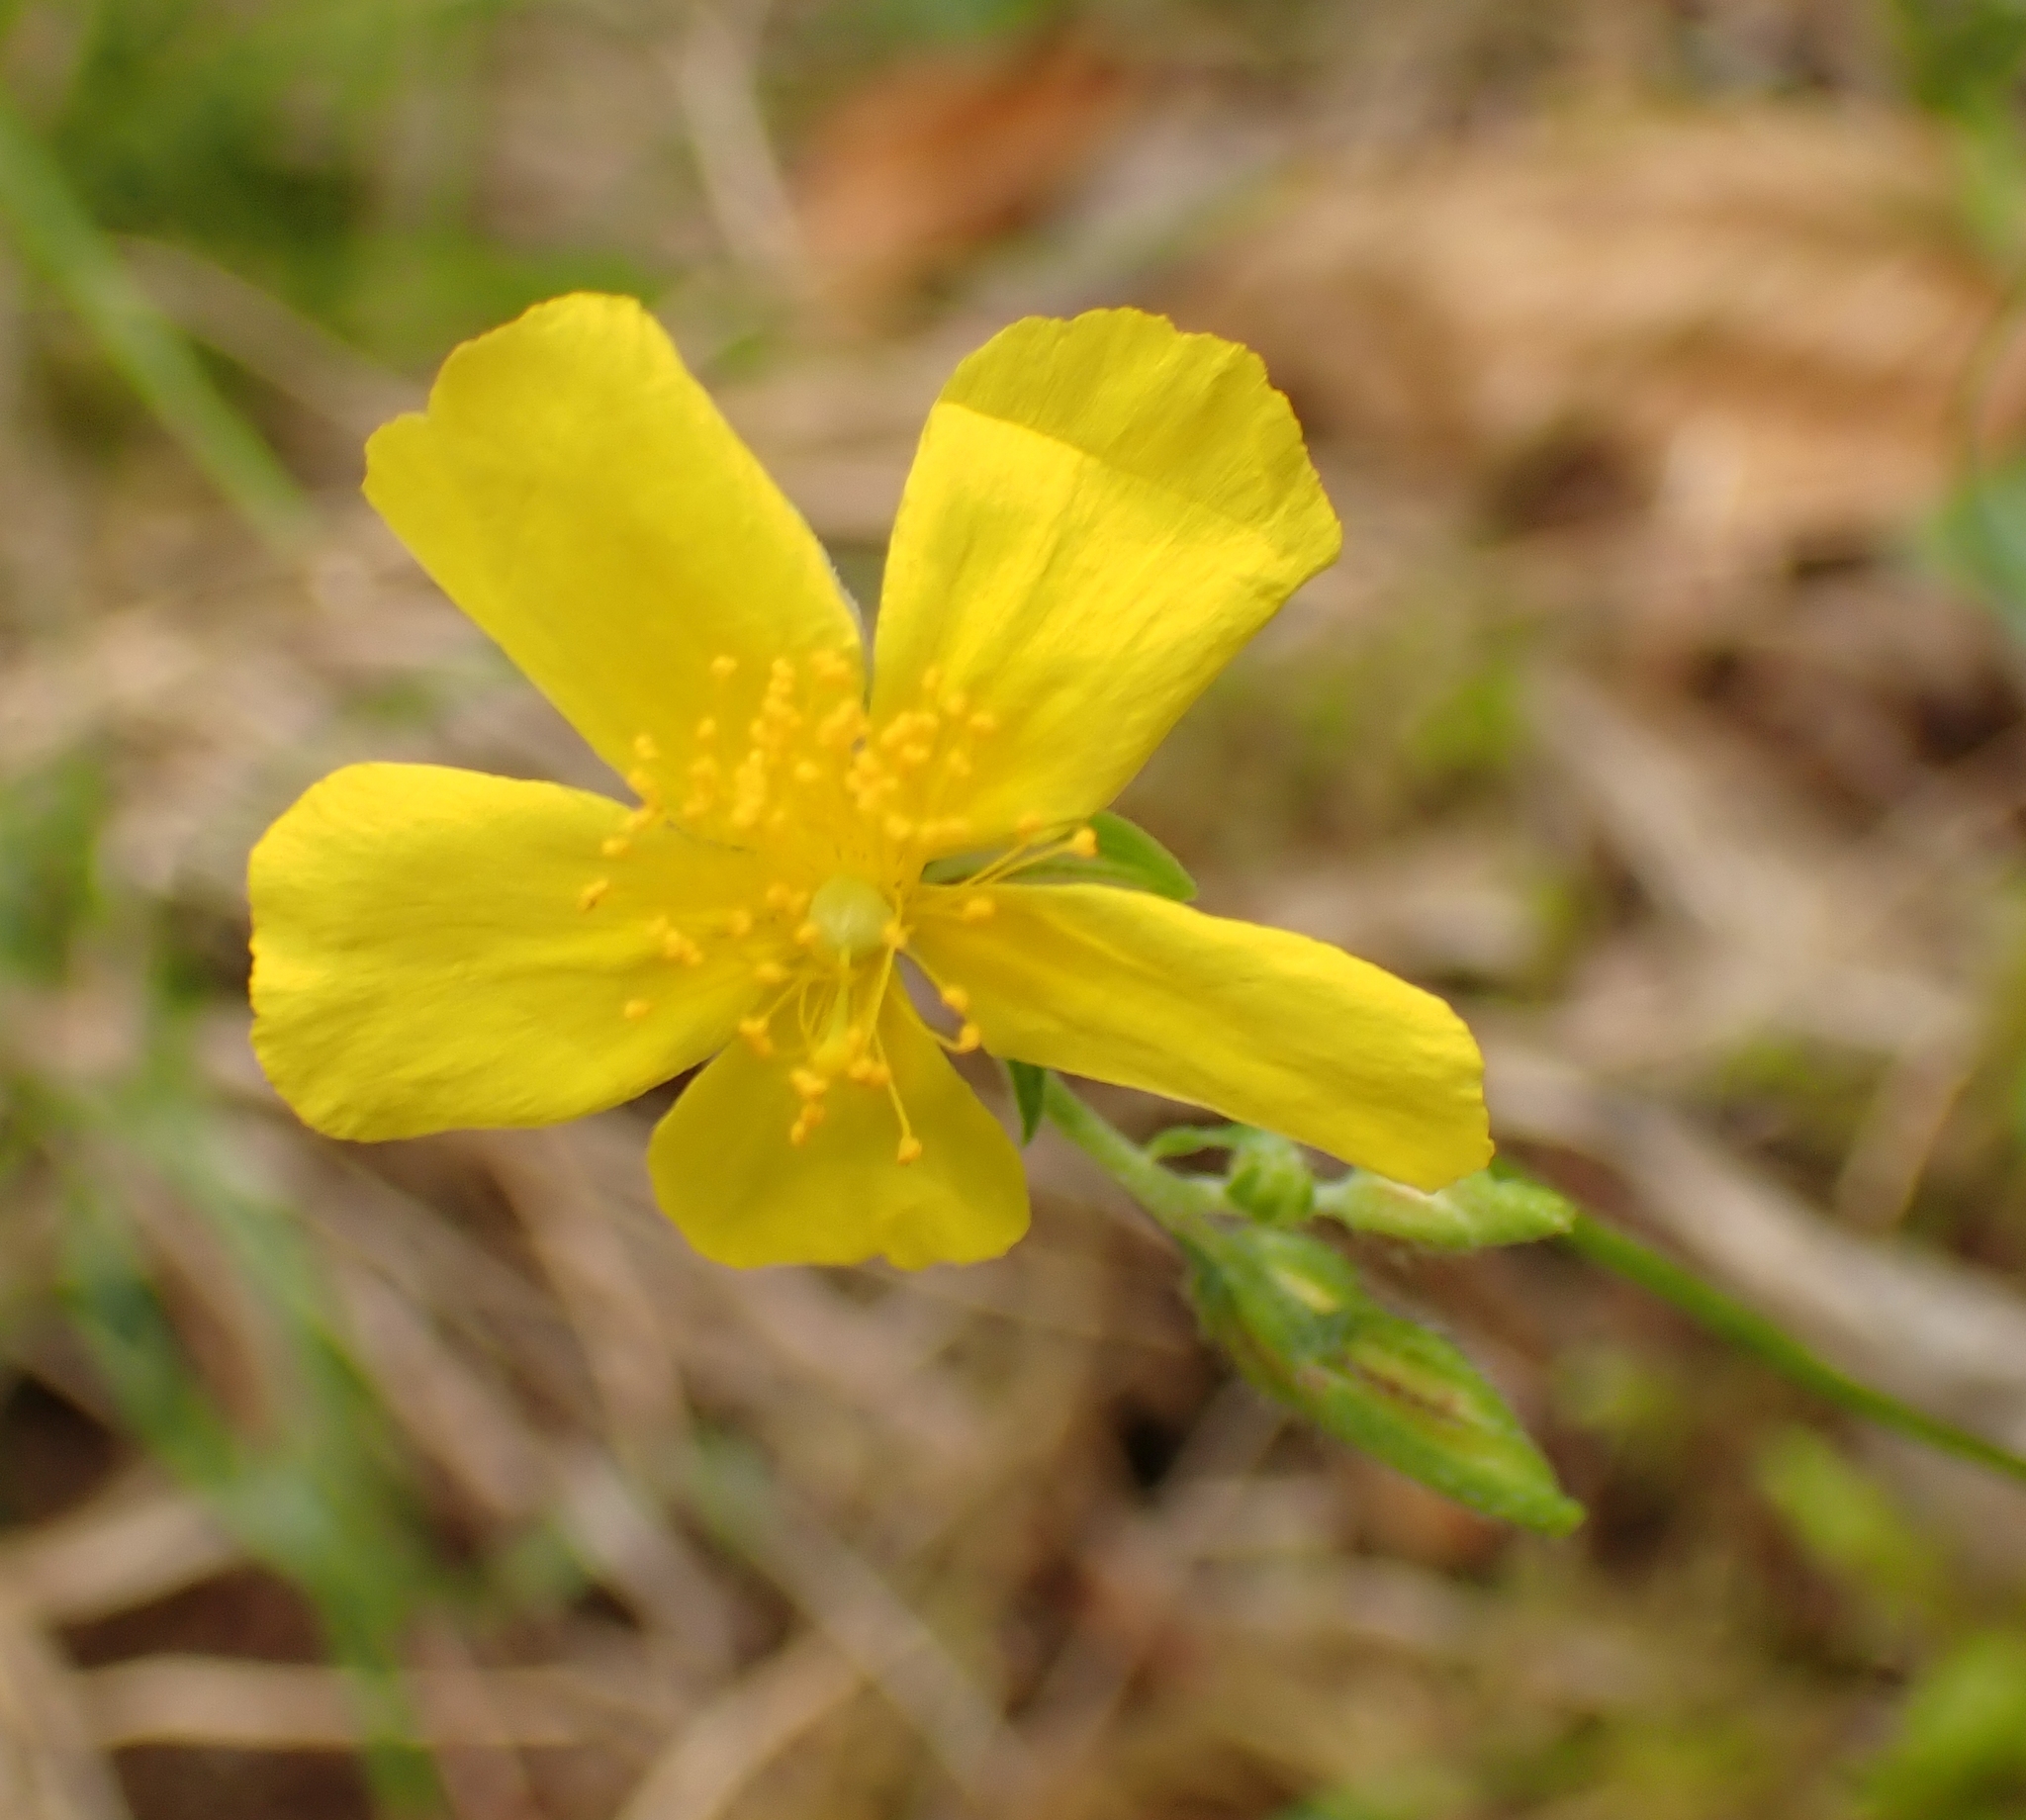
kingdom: Plantae
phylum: Tracheophyta
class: Magnoliopsida
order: Malvales
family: Cistaceae
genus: Helianthemum
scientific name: Helianthemum nummularium
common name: Common rock-rose
